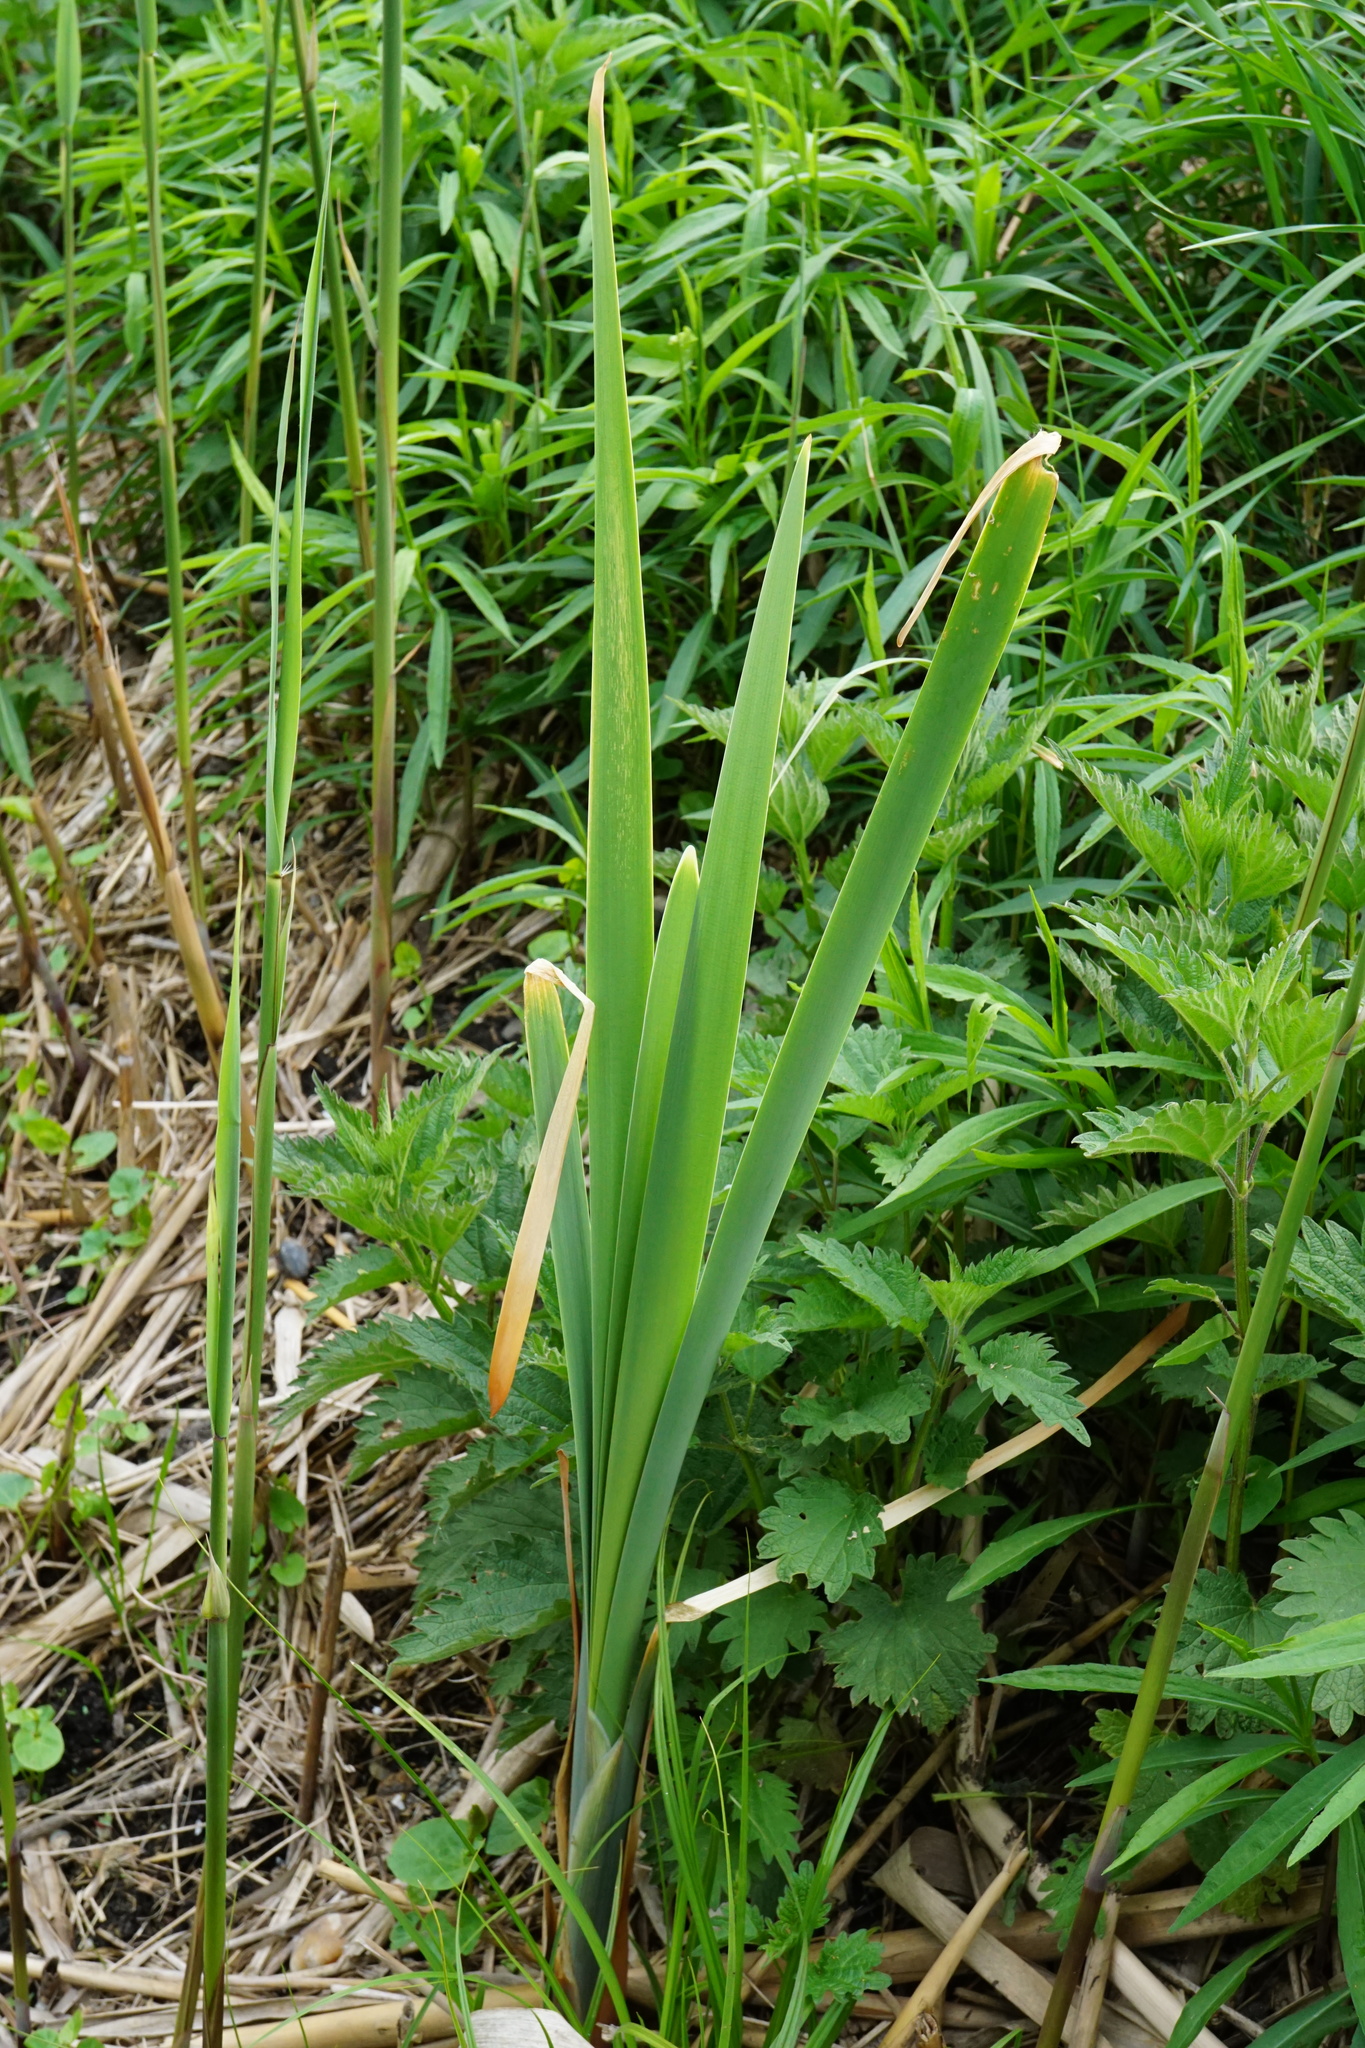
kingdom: Plantae
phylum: Tracheophyta
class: Liliopsida
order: Poales
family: Typhaceae
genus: Typha
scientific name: Typha latifolia
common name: Broadleaf cattail
